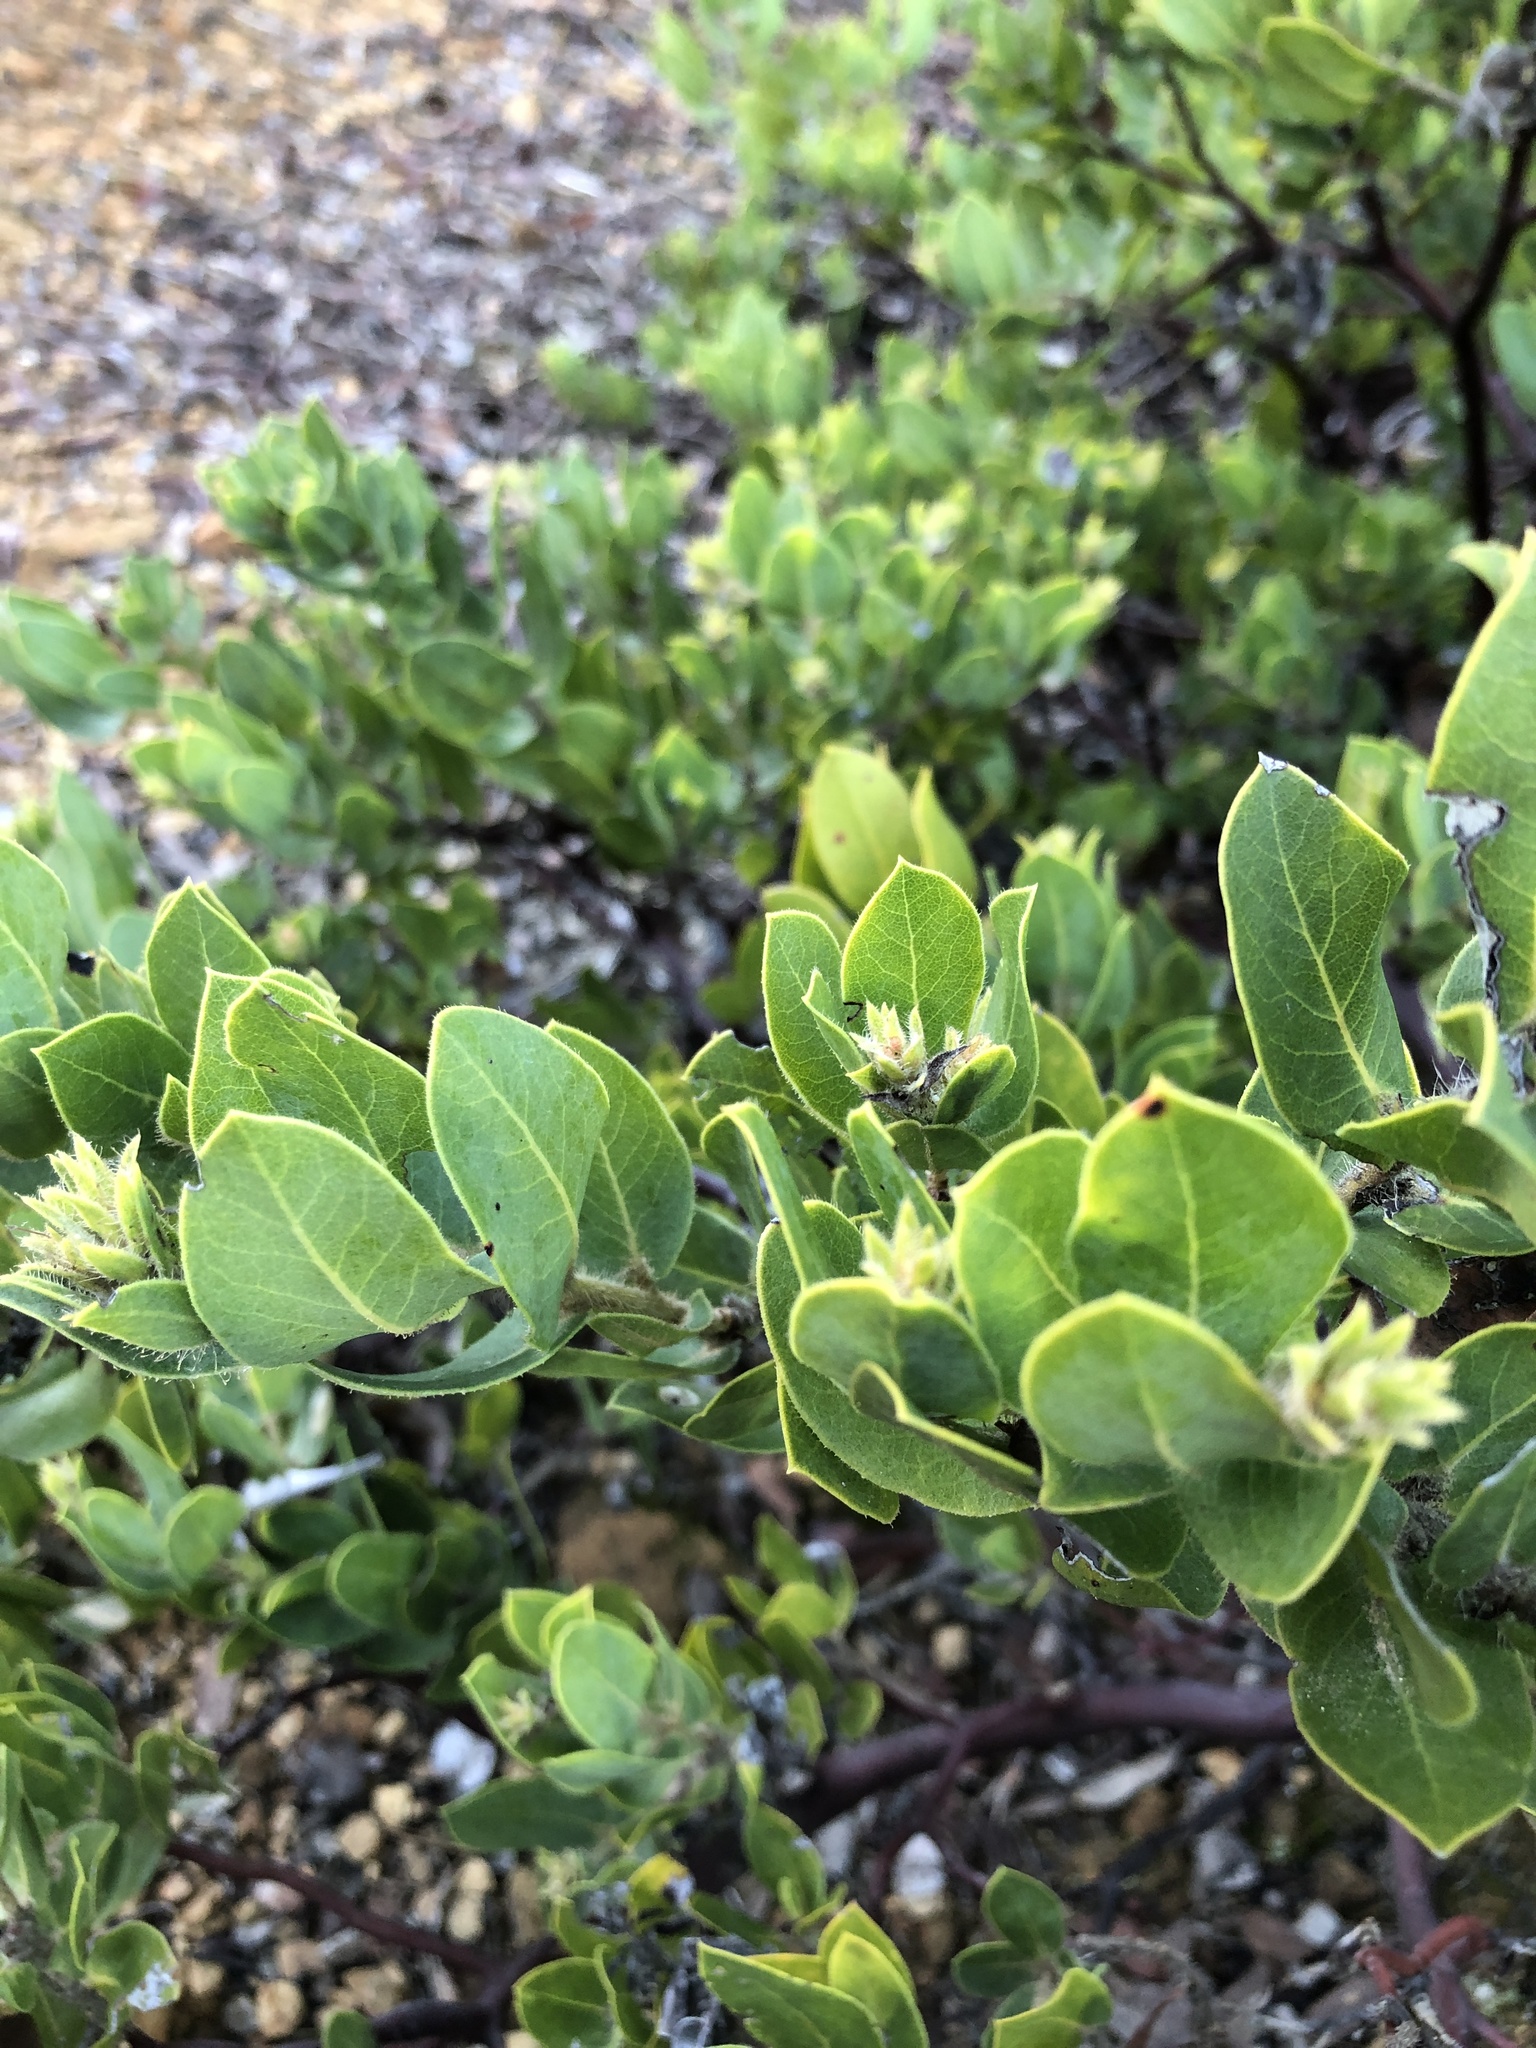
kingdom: Plantae
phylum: Tracheophyta
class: Magnoliopsida
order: Ericales
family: Ericaceae
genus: Arctostaphylos
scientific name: Arctostaphylos montaraensis
